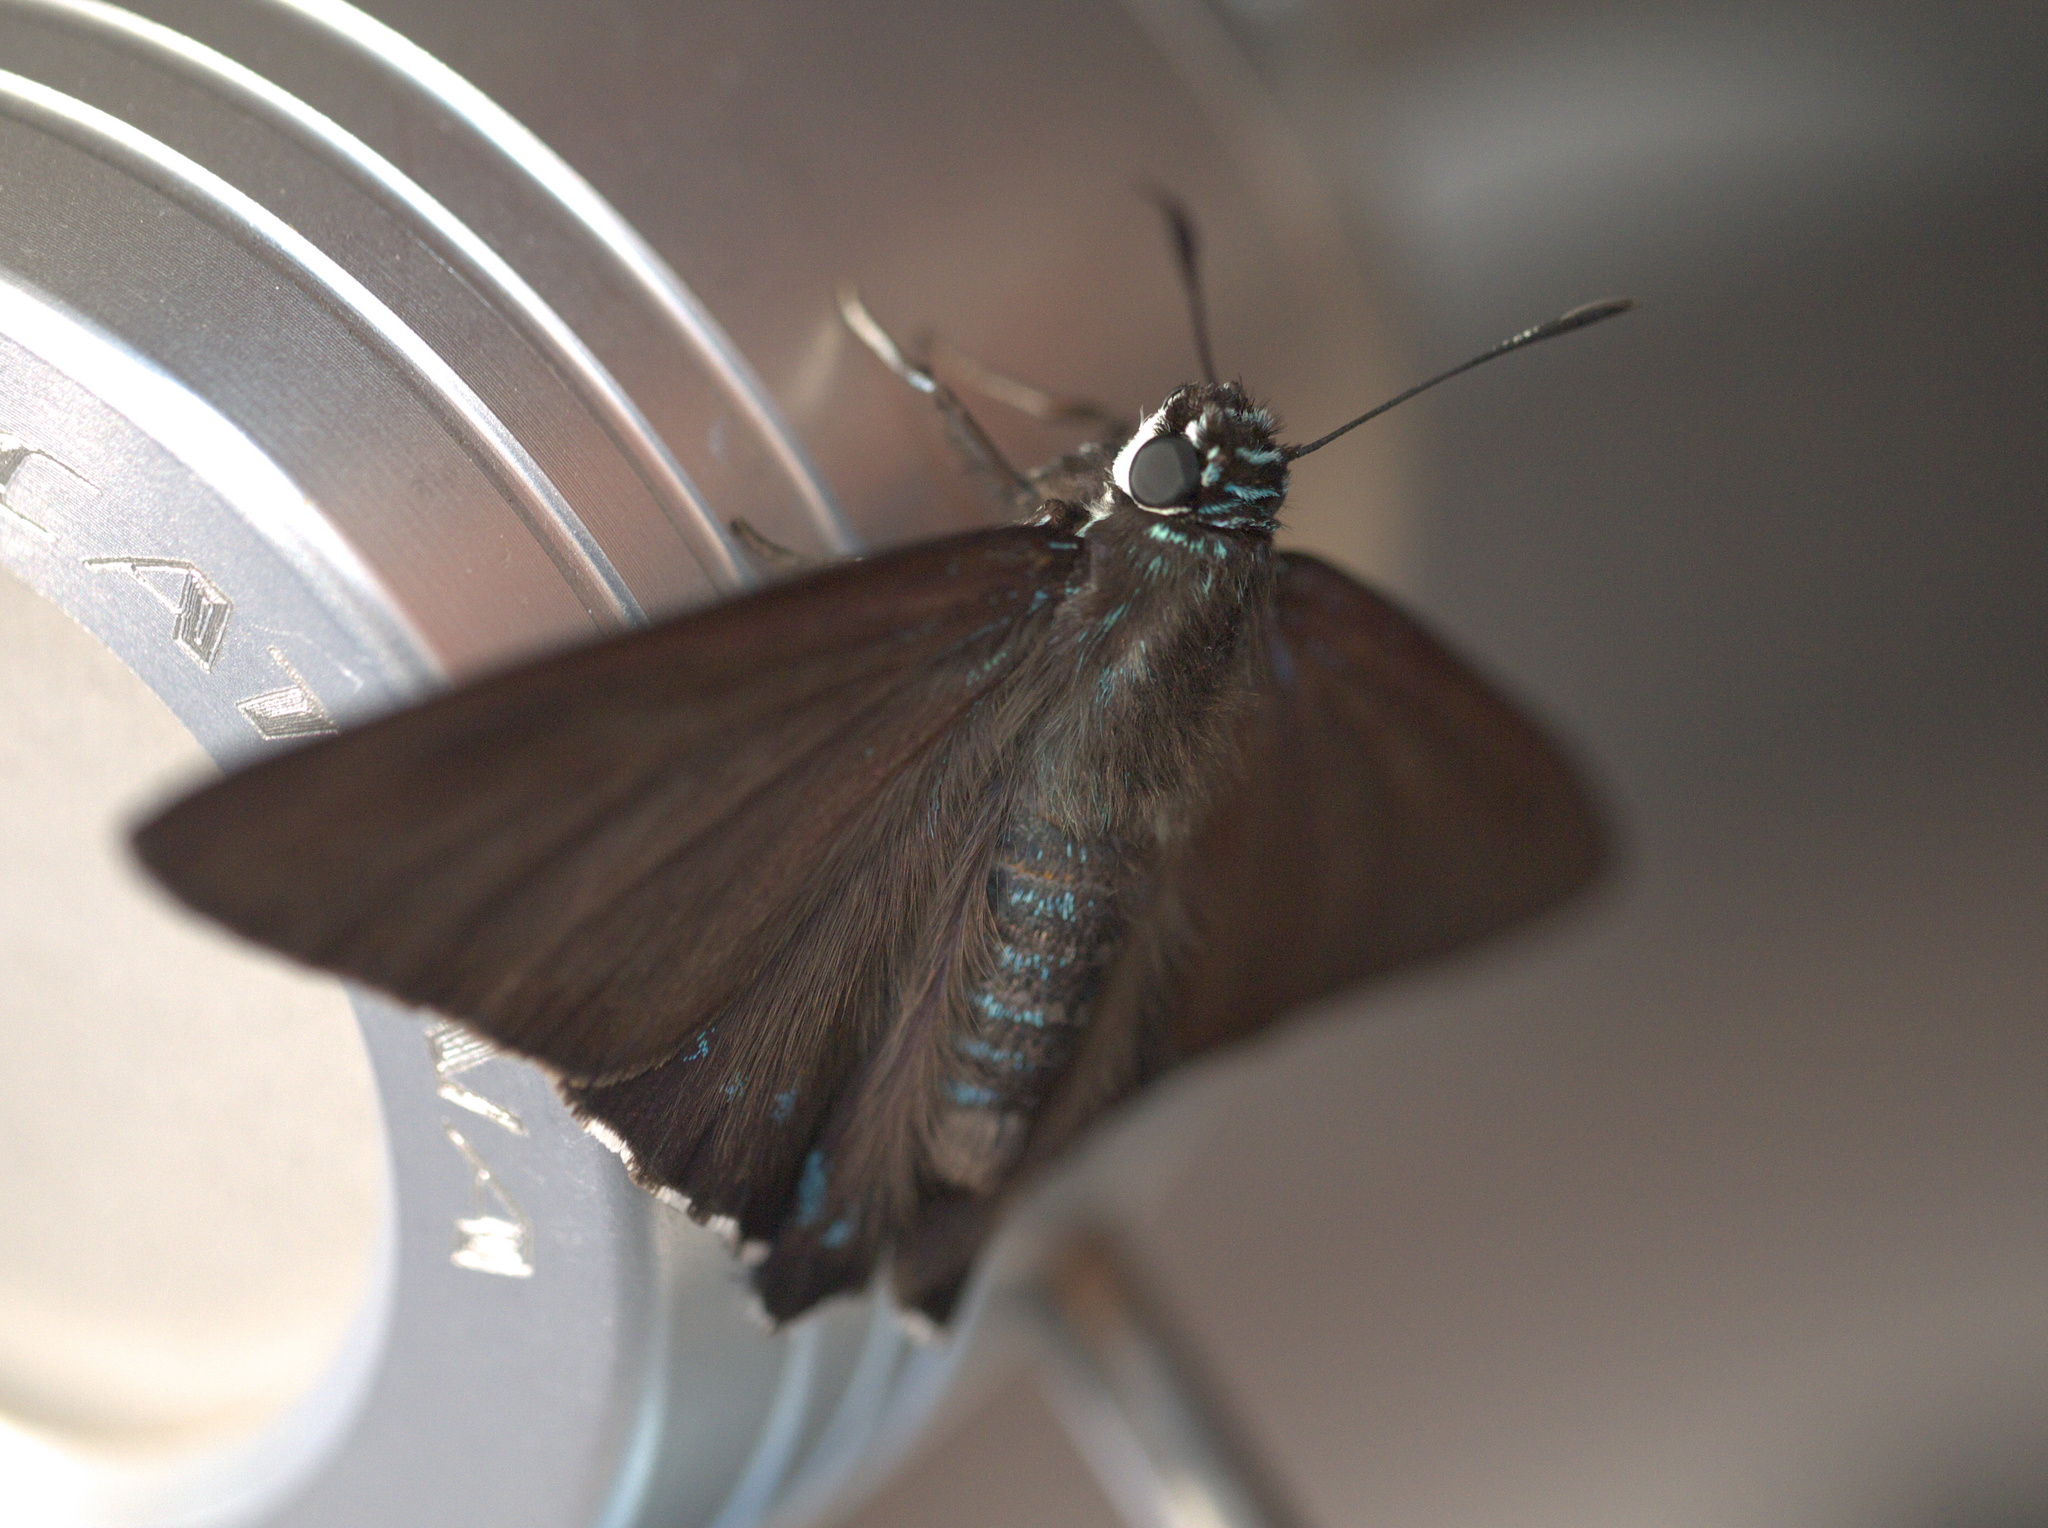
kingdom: Animalia
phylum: Arthropoda
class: Insecta
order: Lepidoptera
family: Hesperiidae
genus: Phocides
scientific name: Phocides pigmalion
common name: Mangrove skipper
